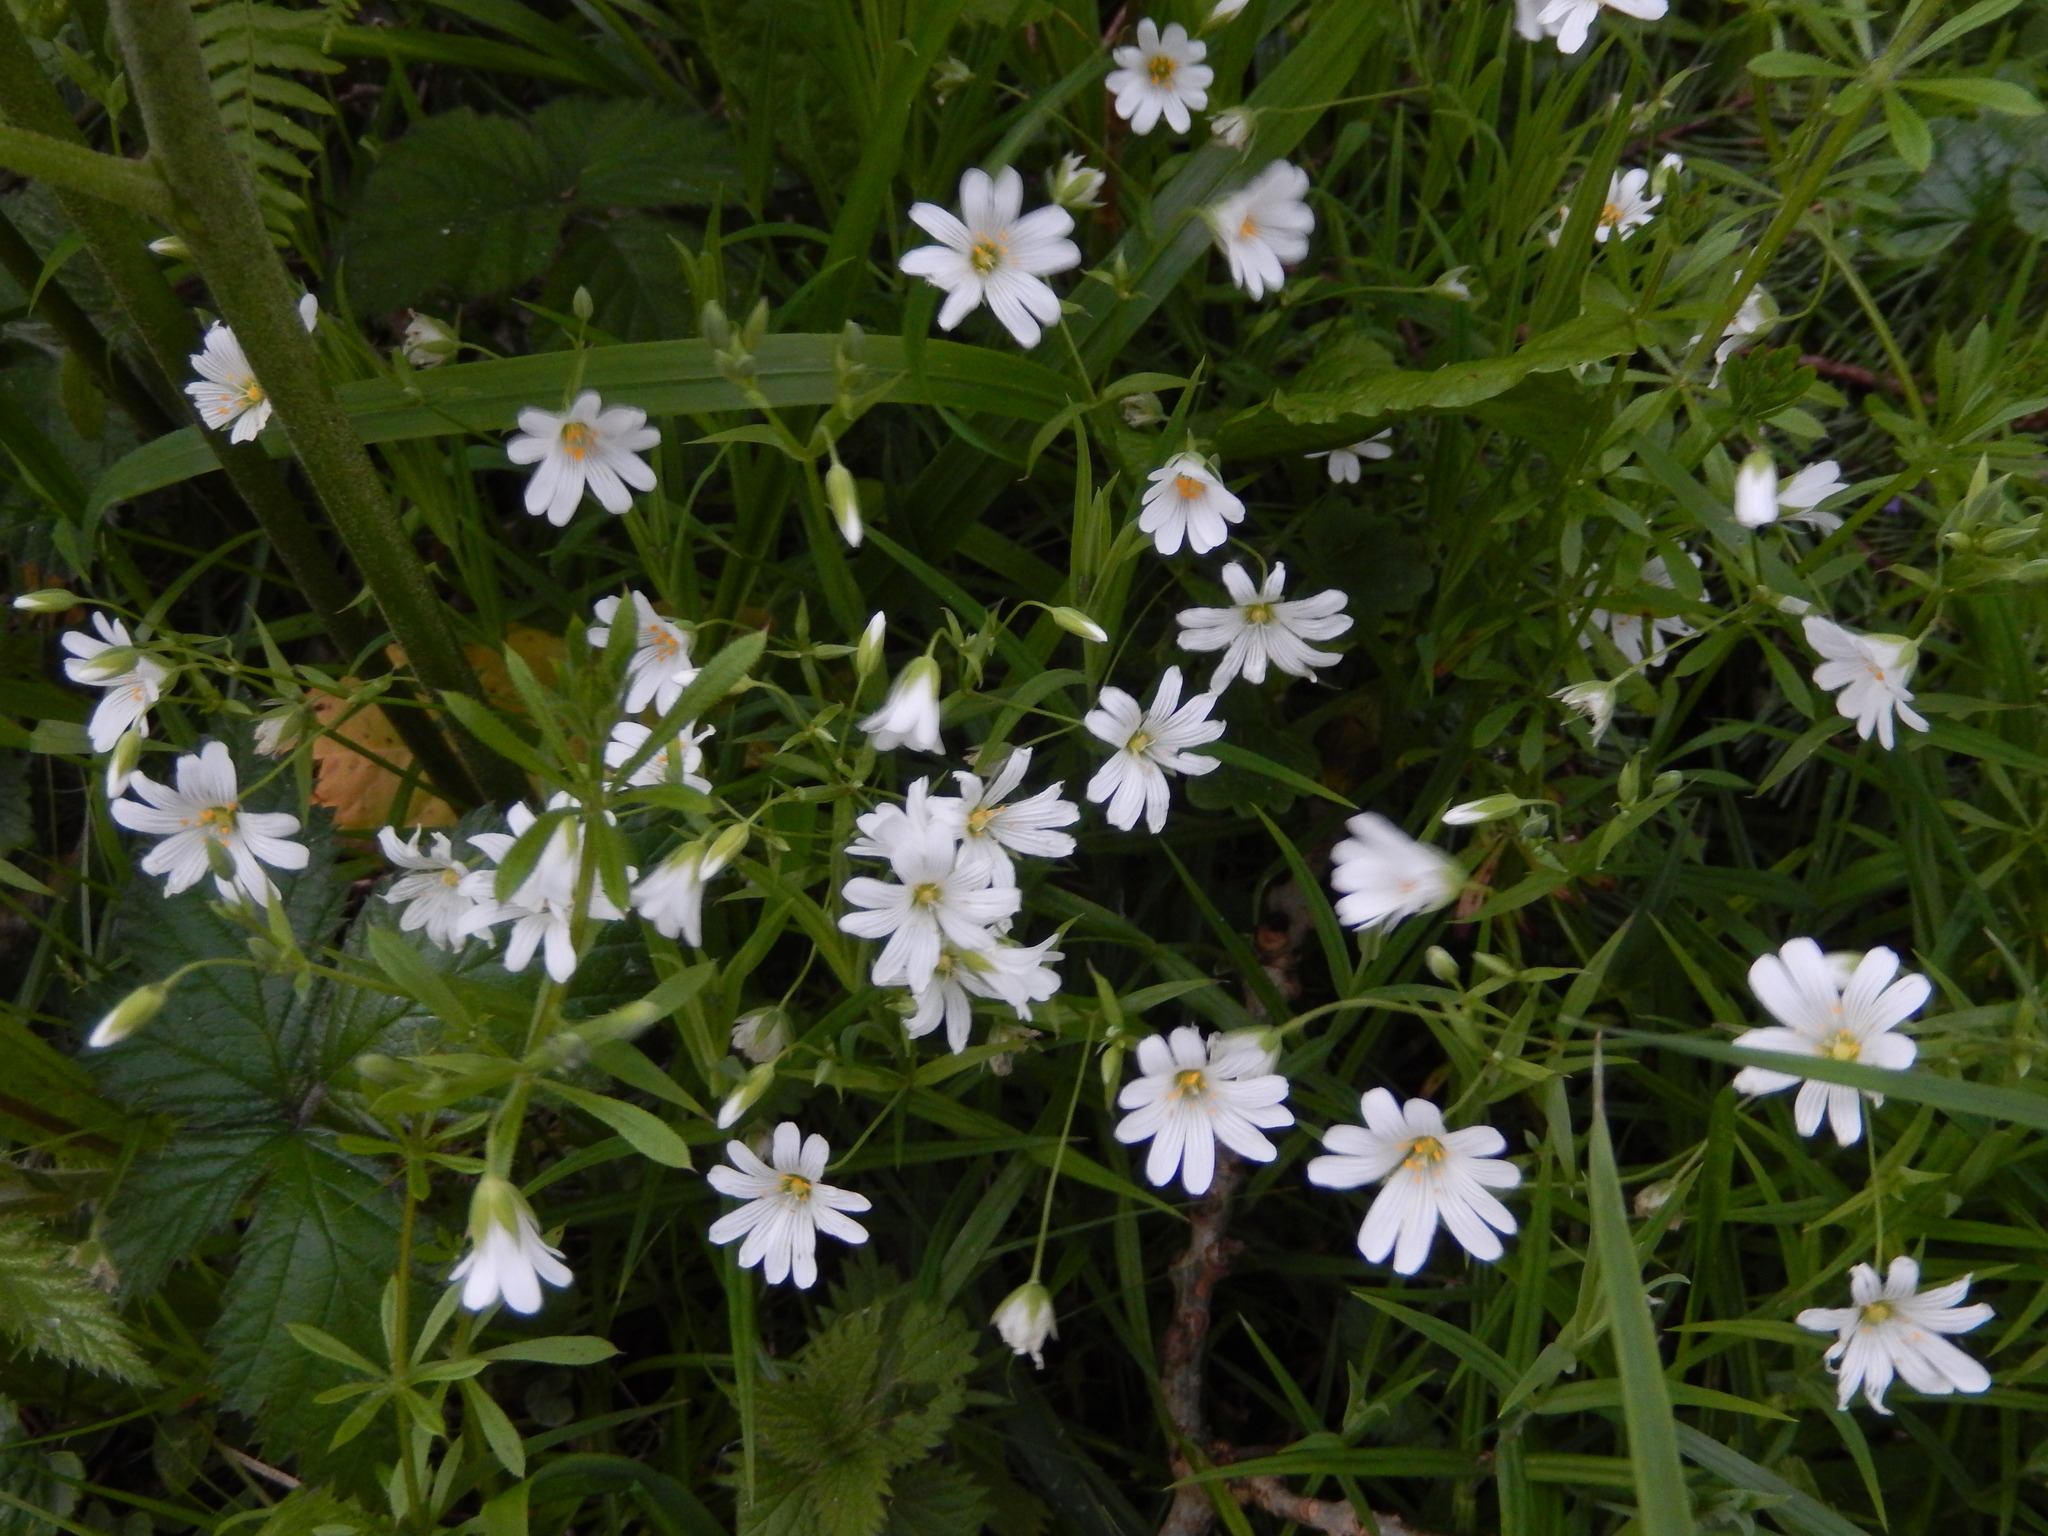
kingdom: Plantae
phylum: Tracheophyta
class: Magnoliopsida
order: Caryophyllales
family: Caryophyllaceae
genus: Rabelera
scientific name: Rabelera holostea
